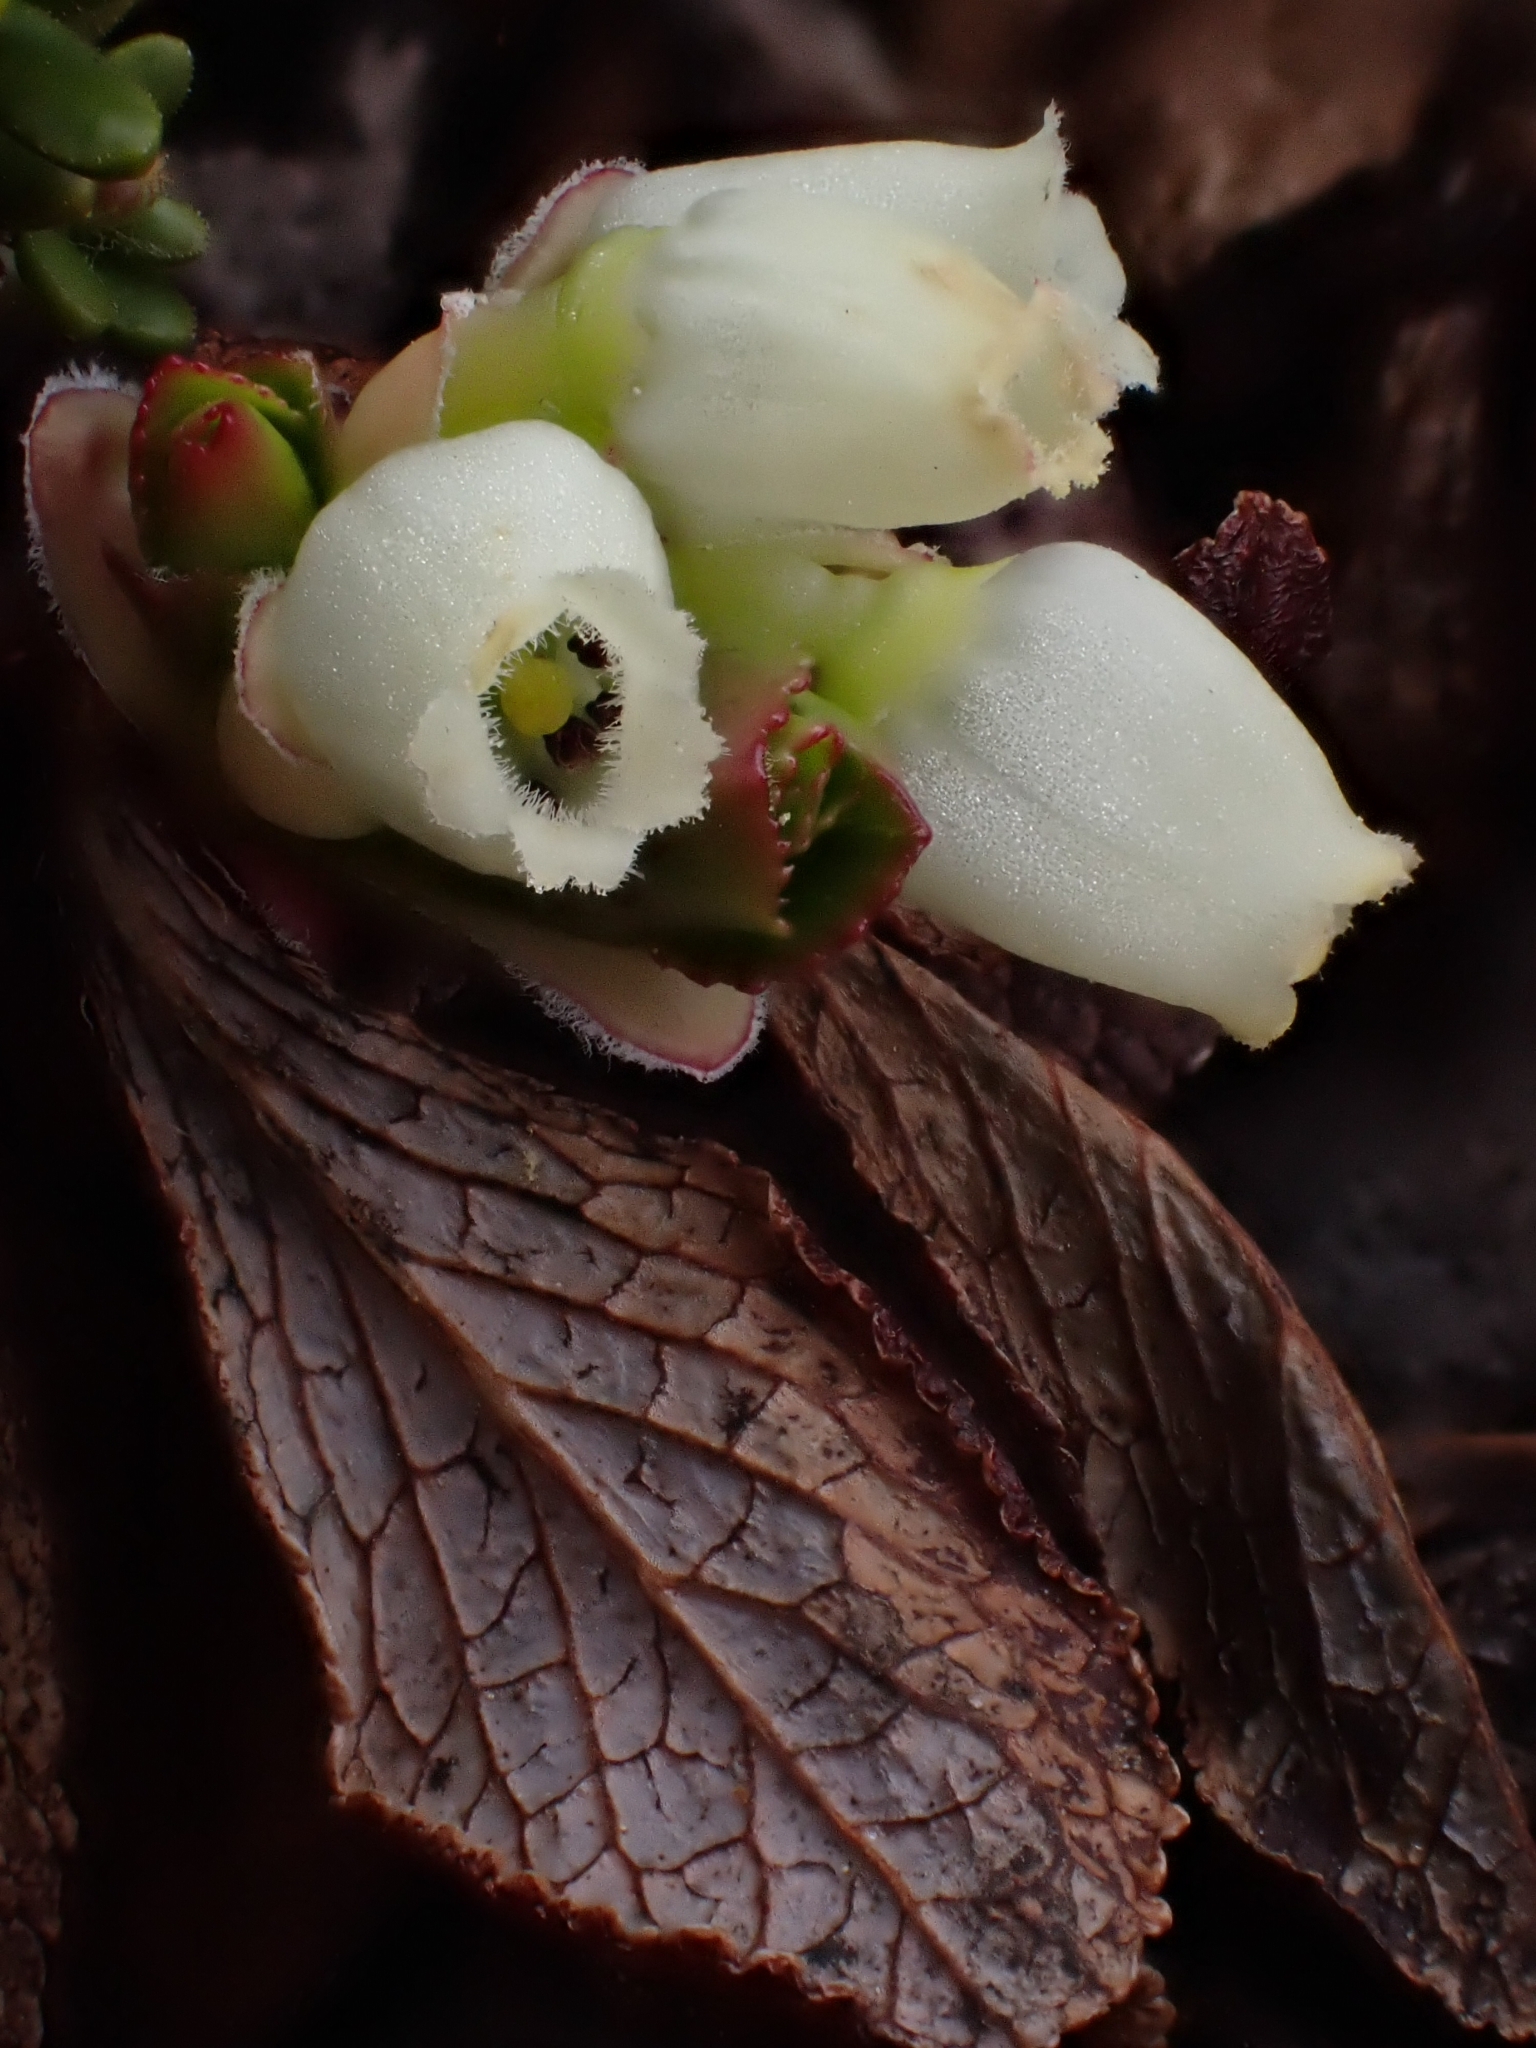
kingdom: Plantae
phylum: Tracheophyta
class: Magnoliopsida
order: Ericales
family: Ericaceae
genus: Arctostaphylos
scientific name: Arctostaphylos alpinus
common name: Alpine bearberry
